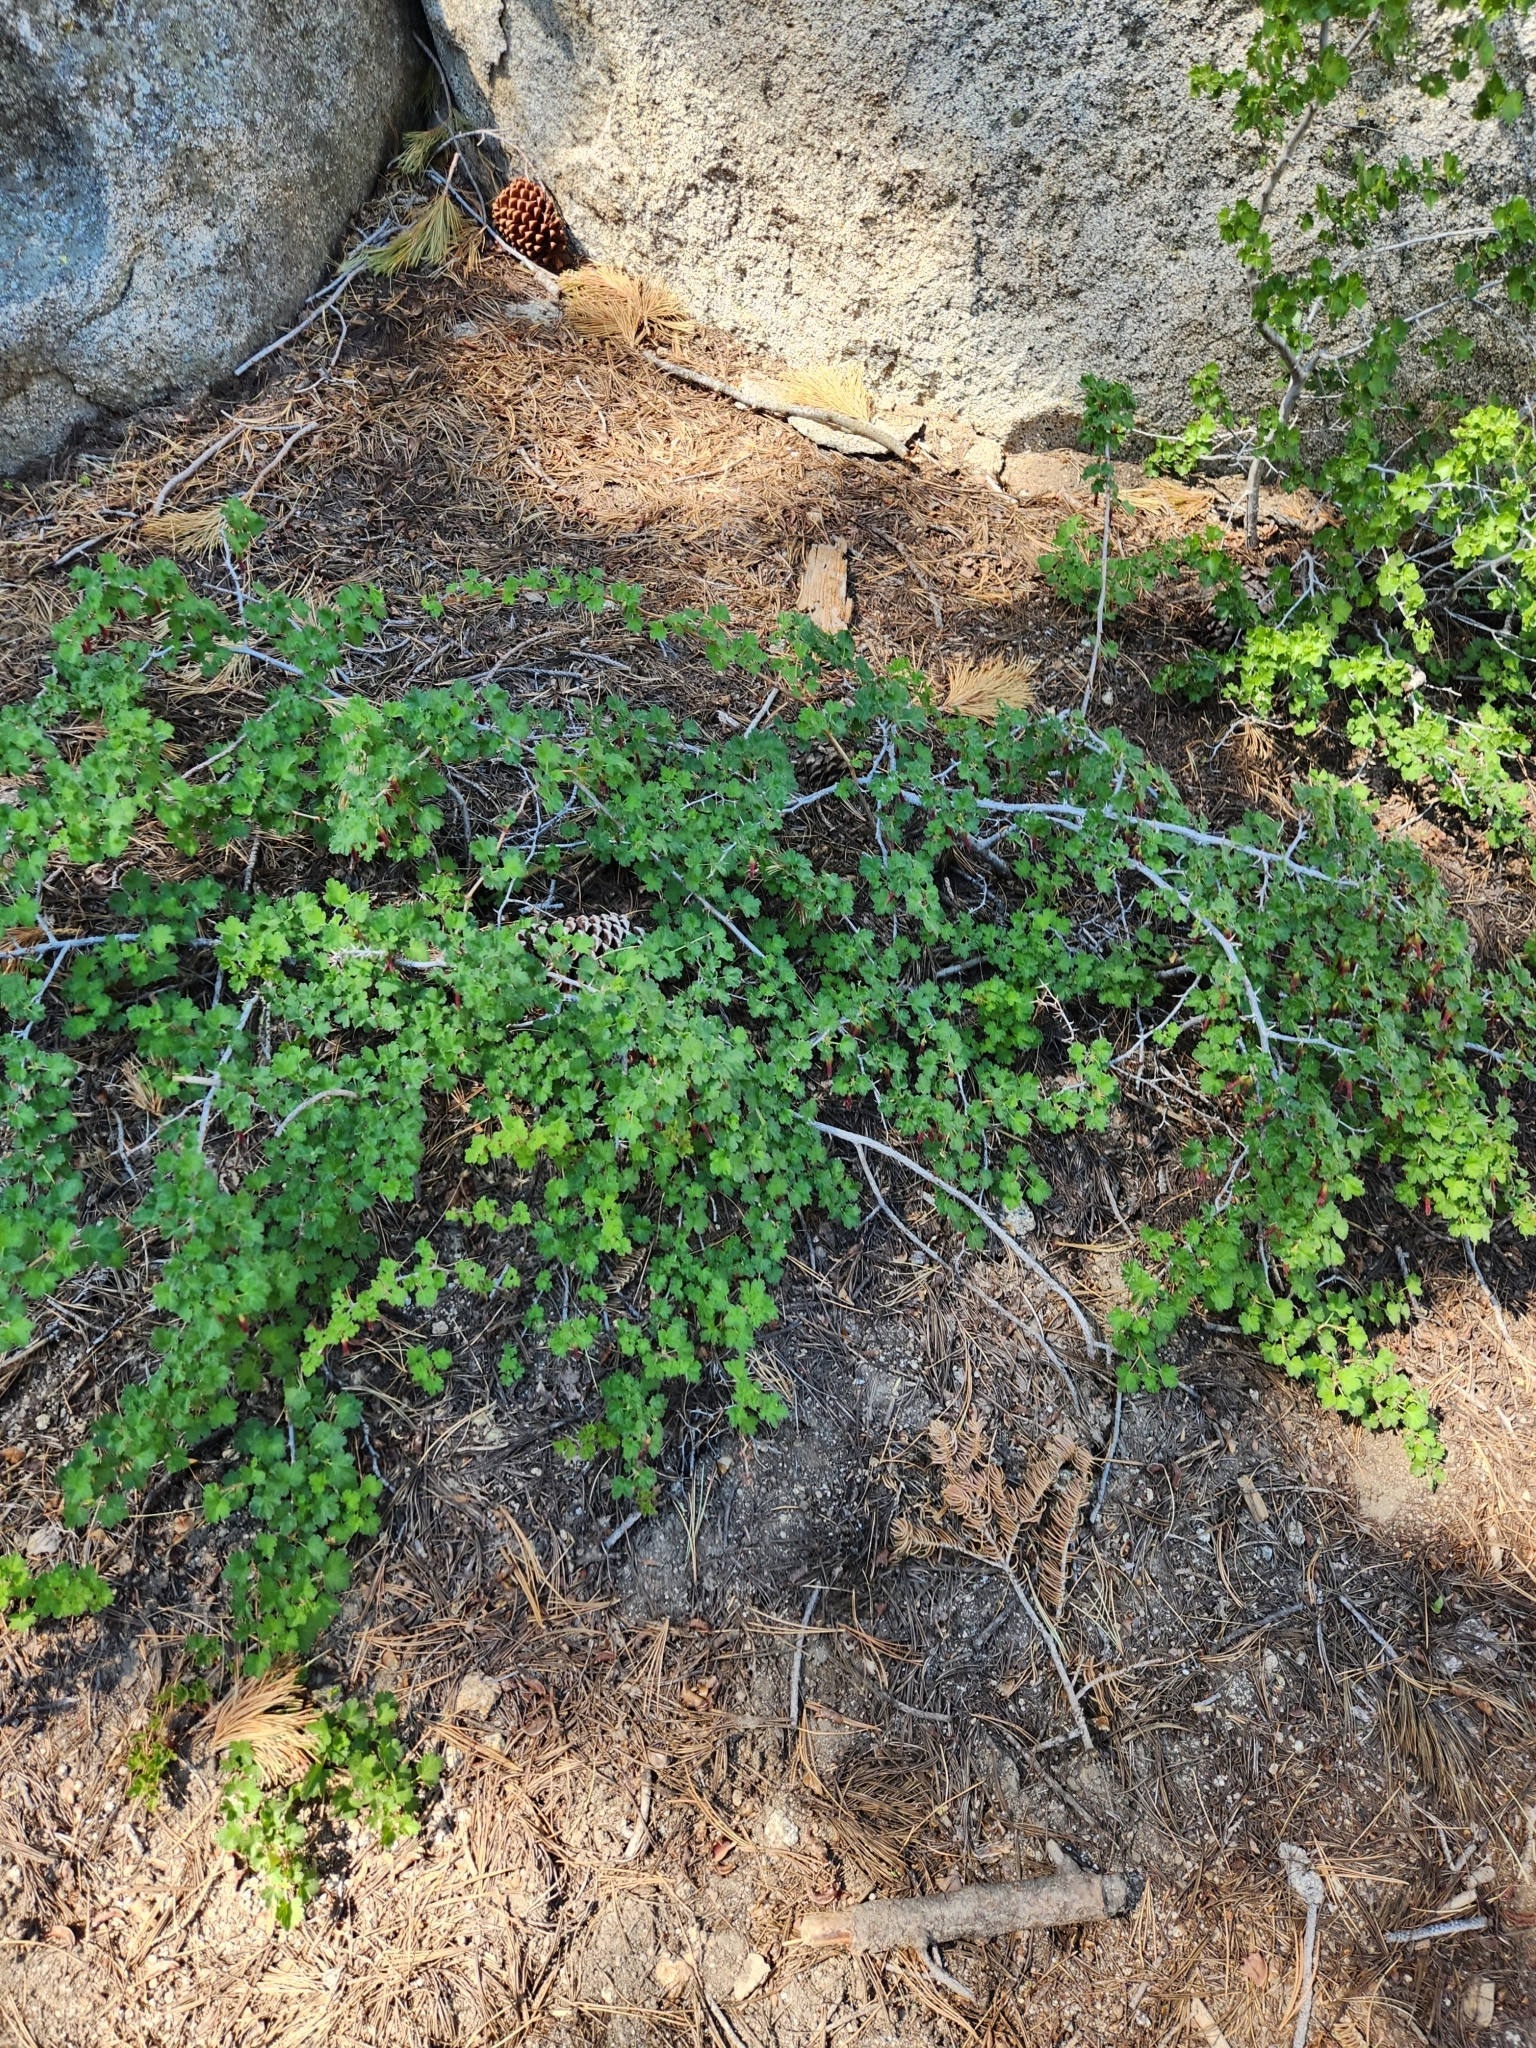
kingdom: Plantae
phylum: Tracheophyta
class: Magnoliopsida
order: Saxifragales
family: Grossulariaceae
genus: Ribes
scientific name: Ribes roezlii
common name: Sierra gooseberry
